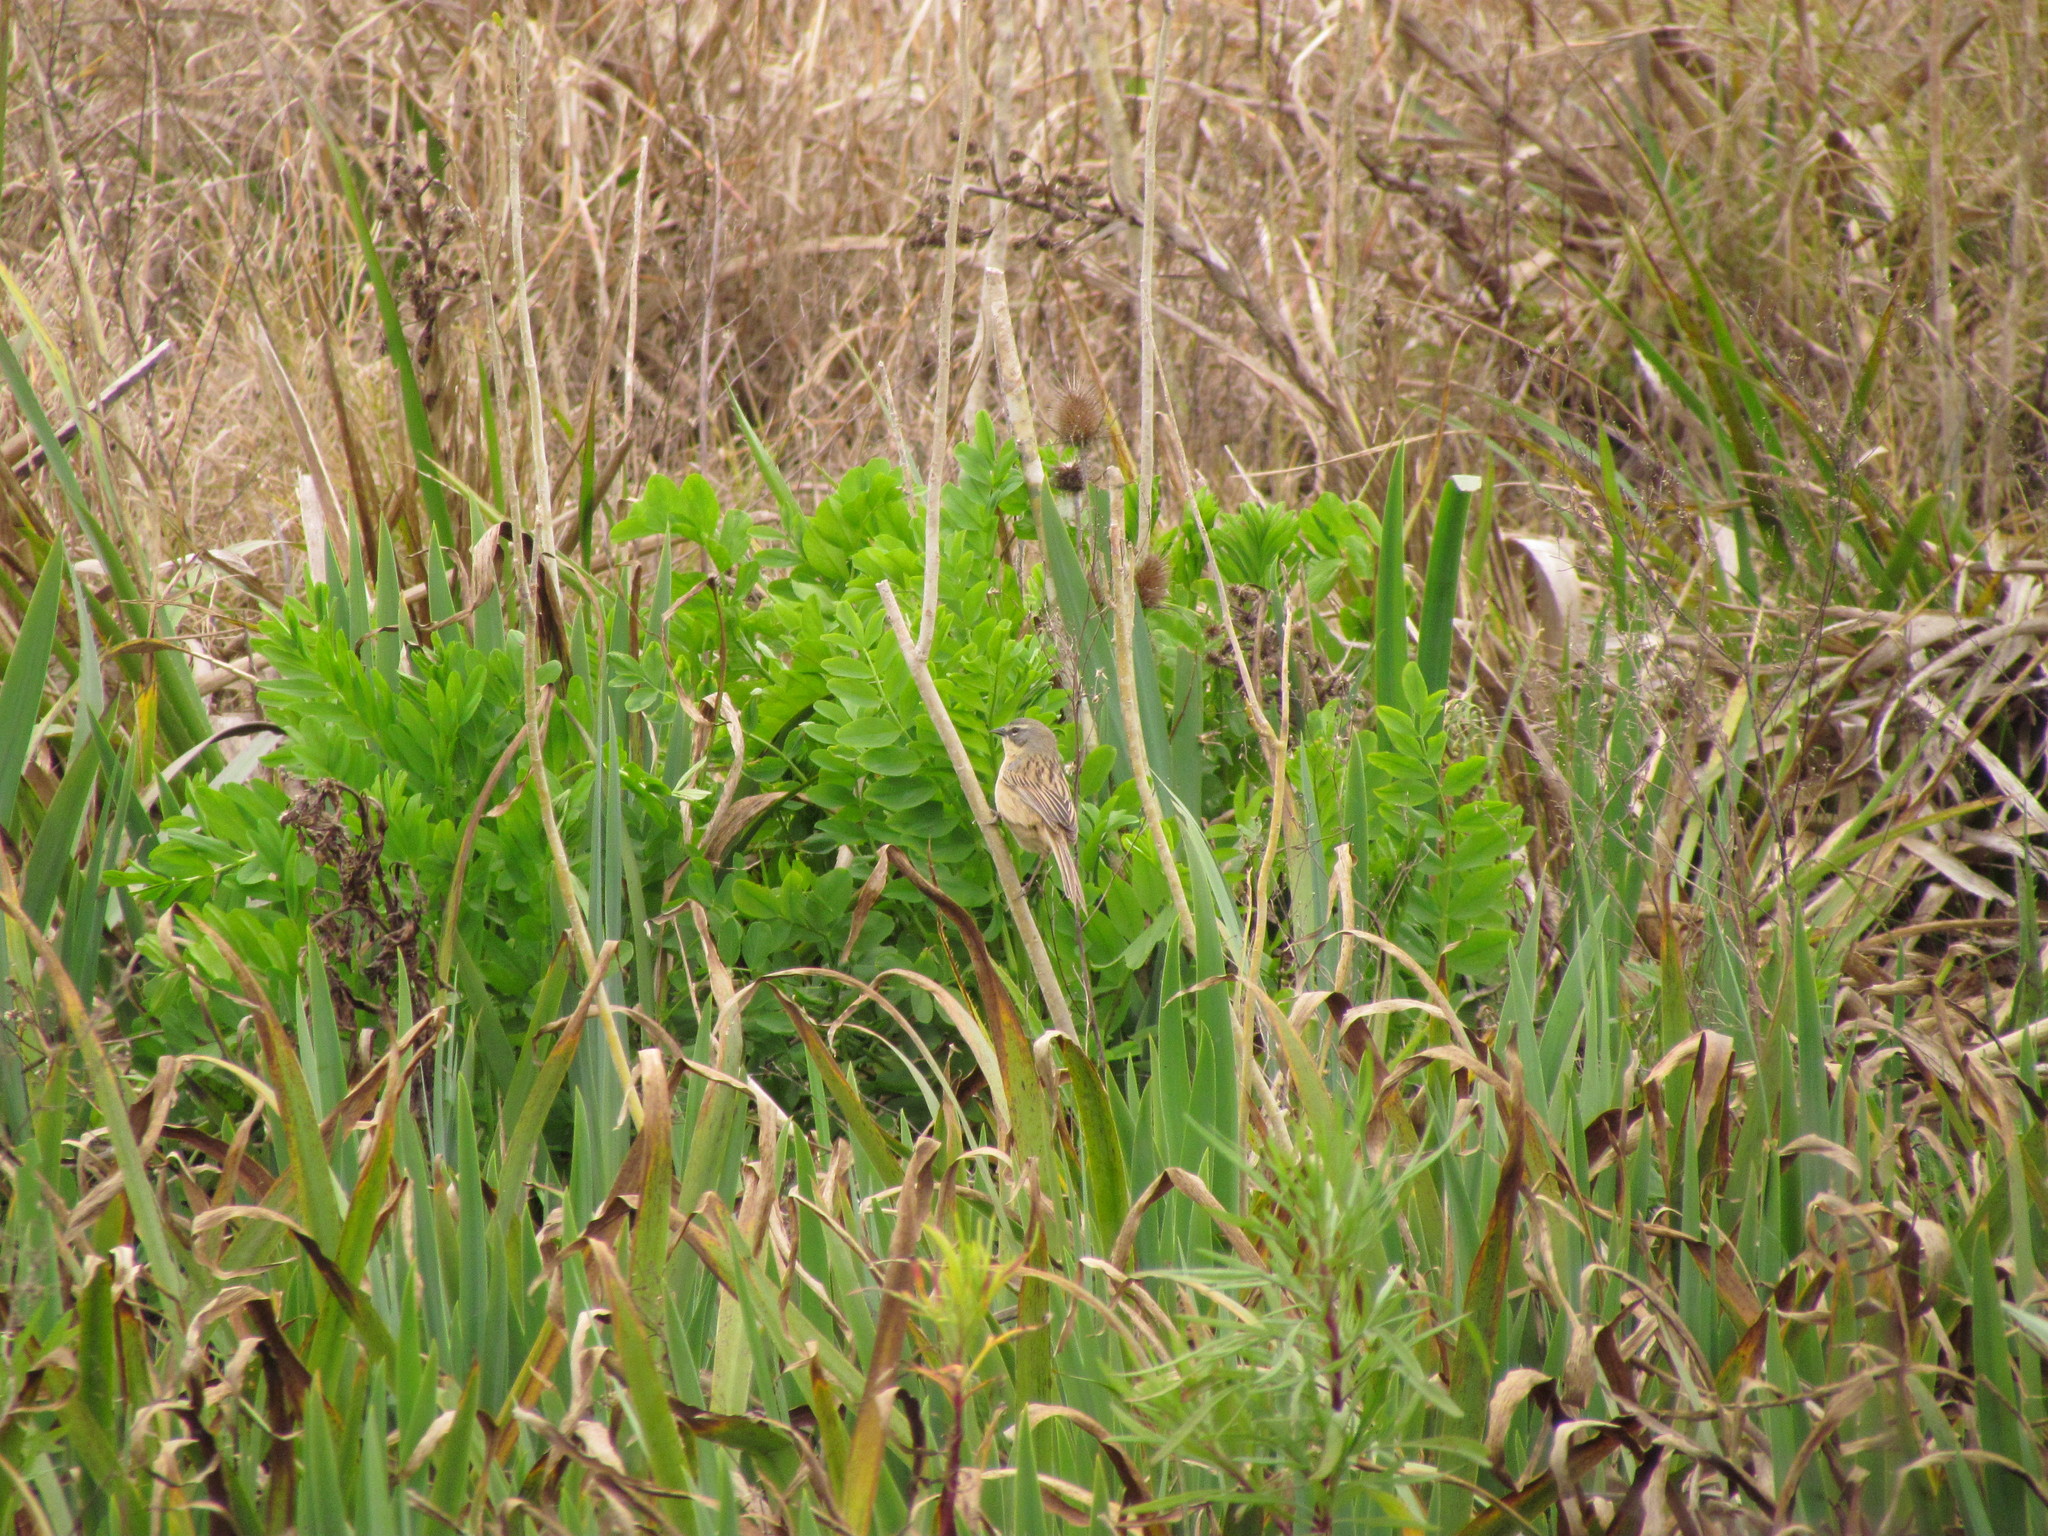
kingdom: Animalia
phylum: Chordata
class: Aves
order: Passeriformes
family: Thraupidae
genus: Donacospiza
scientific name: Donacospiza albifrons
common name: Long-tailed reed finch
